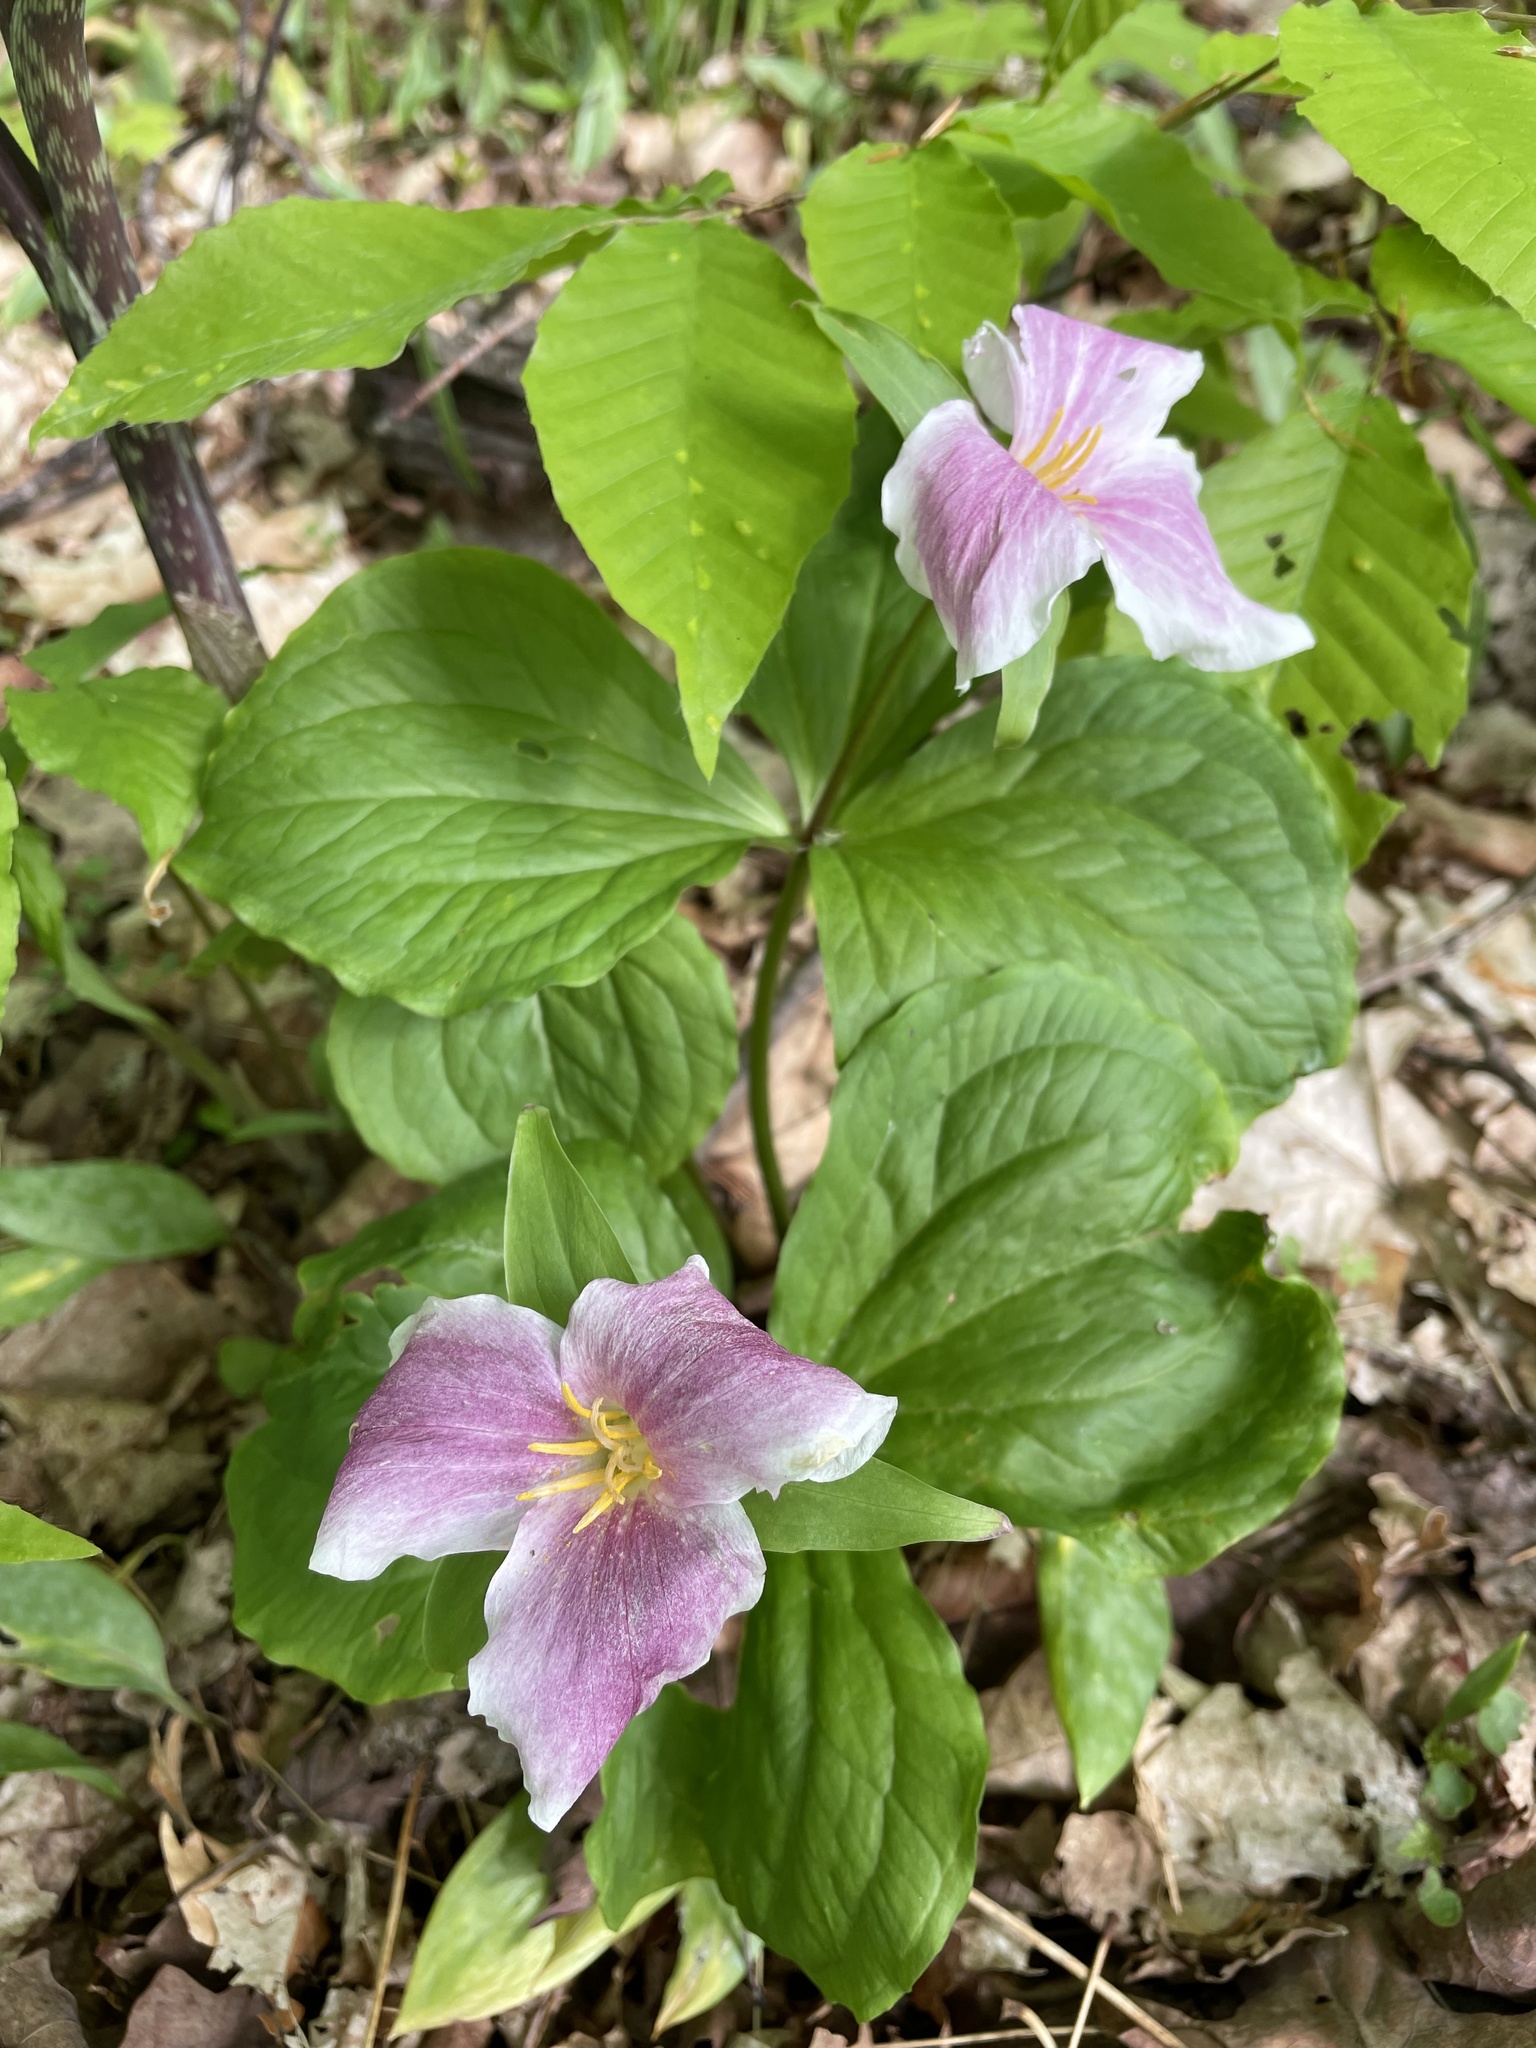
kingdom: Plantae
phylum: Tracheophyta
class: Liliopsida
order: Liliales
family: Melanthiaceae
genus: Trillium
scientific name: Trillium grandiflorum
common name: Great white trillium
